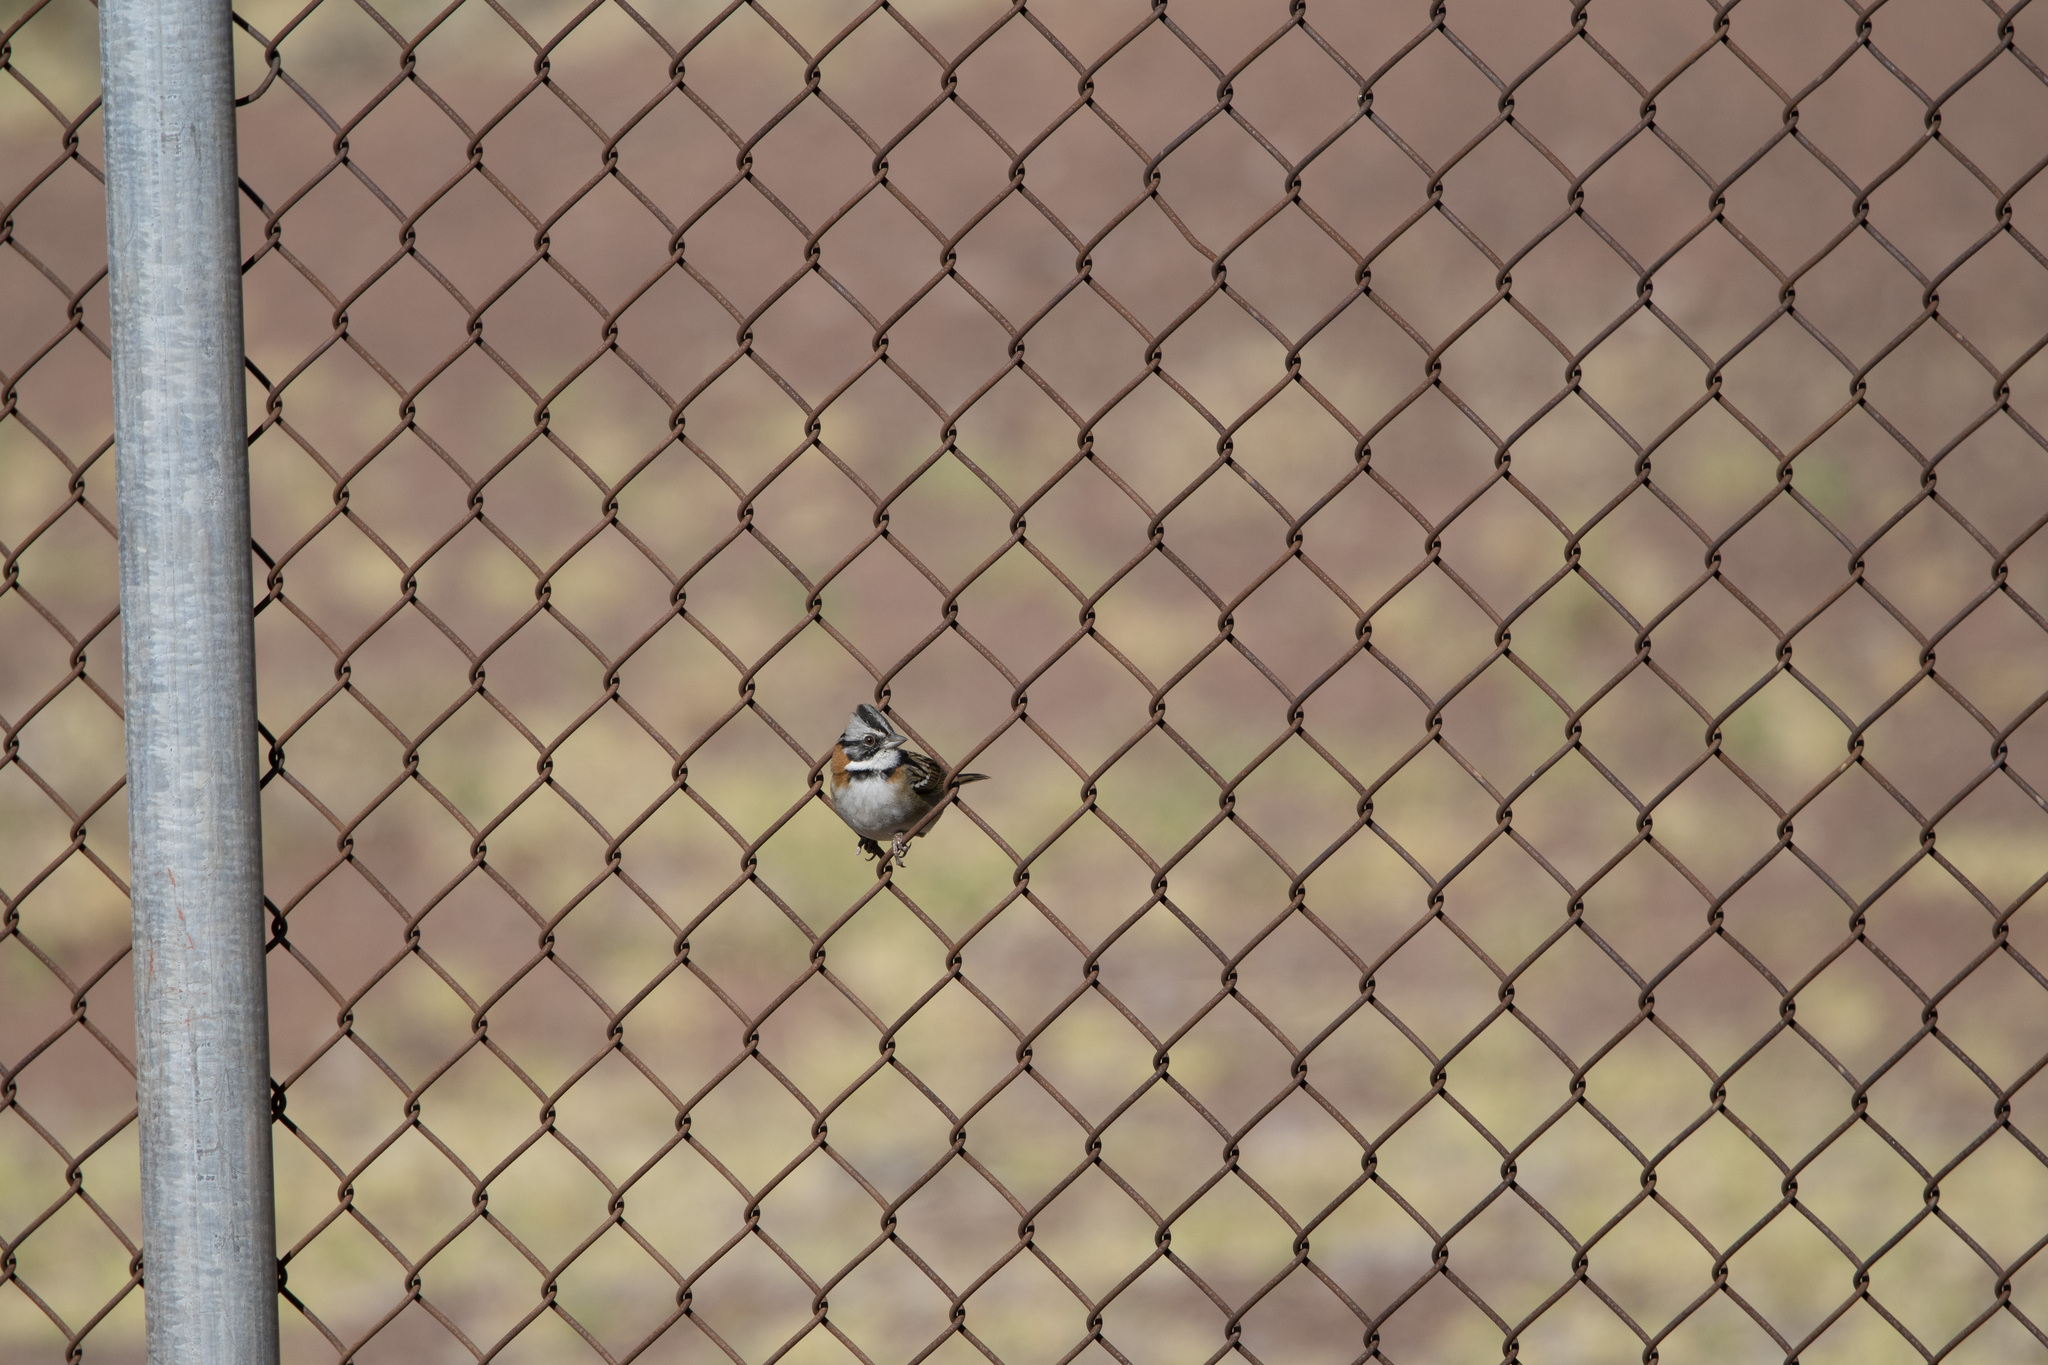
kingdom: Animalia
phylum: Chordata
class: Aves
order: Passeriformes
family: Passerellidae
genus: Zonotrichia
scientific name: Zonotrichia capensis
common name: Rufous-collared sparrow
